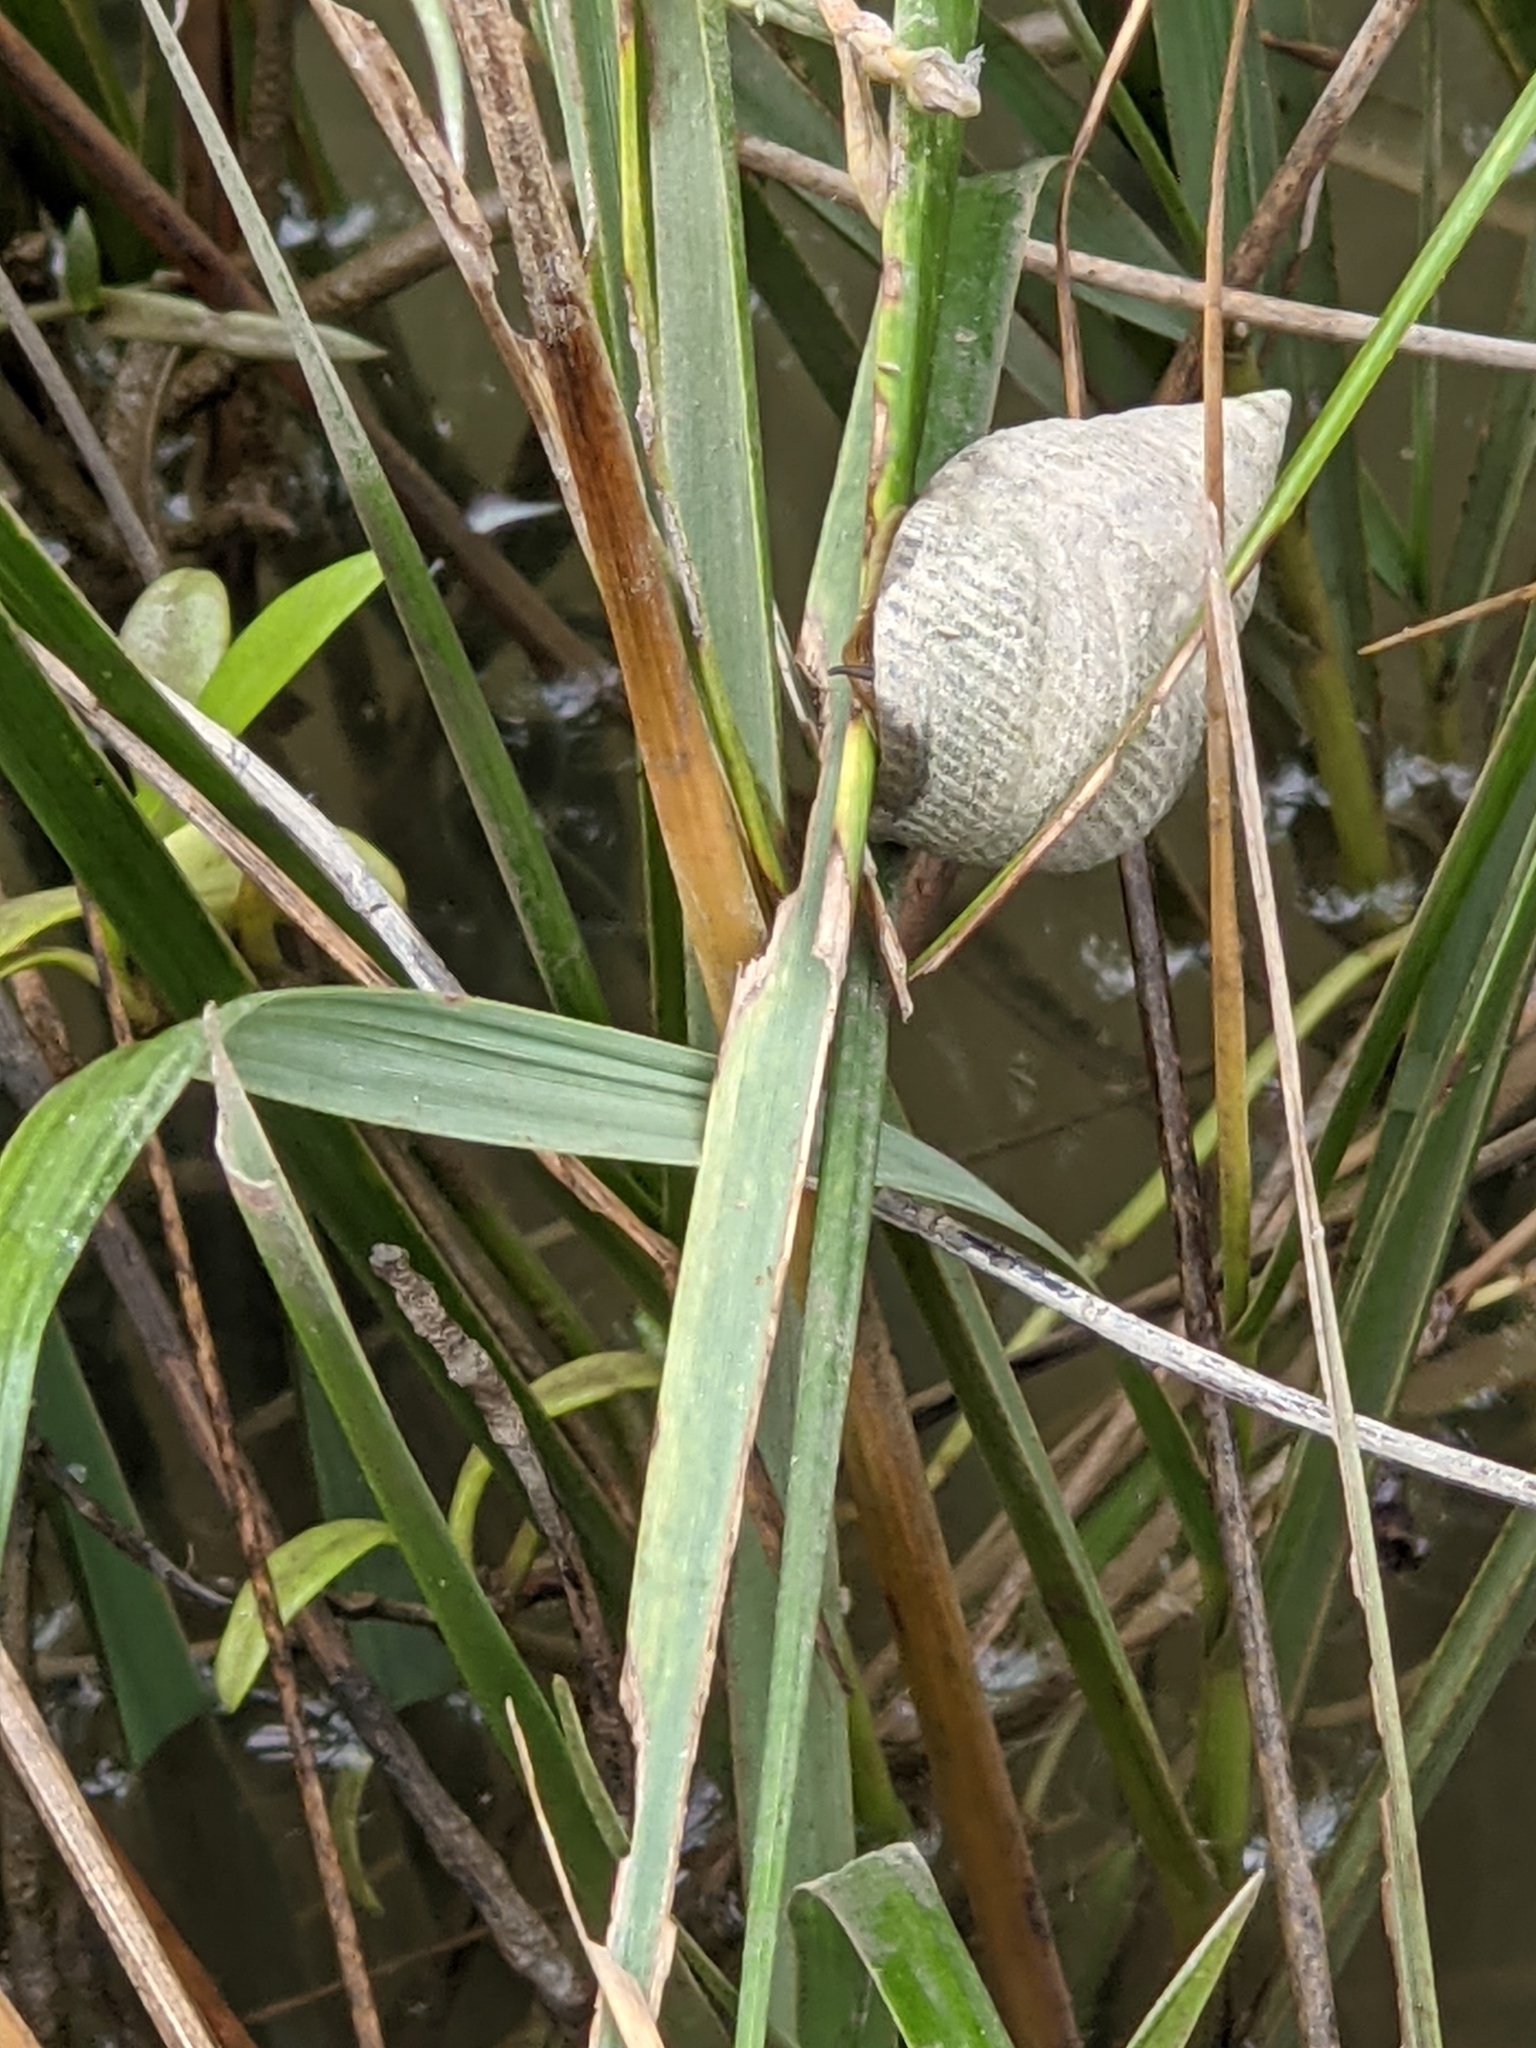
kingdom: Animalia
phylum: Mollusca
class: Gastropoda
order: Littorinimorpha
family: Littorinidae
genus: Littoraria
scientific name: Littoraria irrorata
